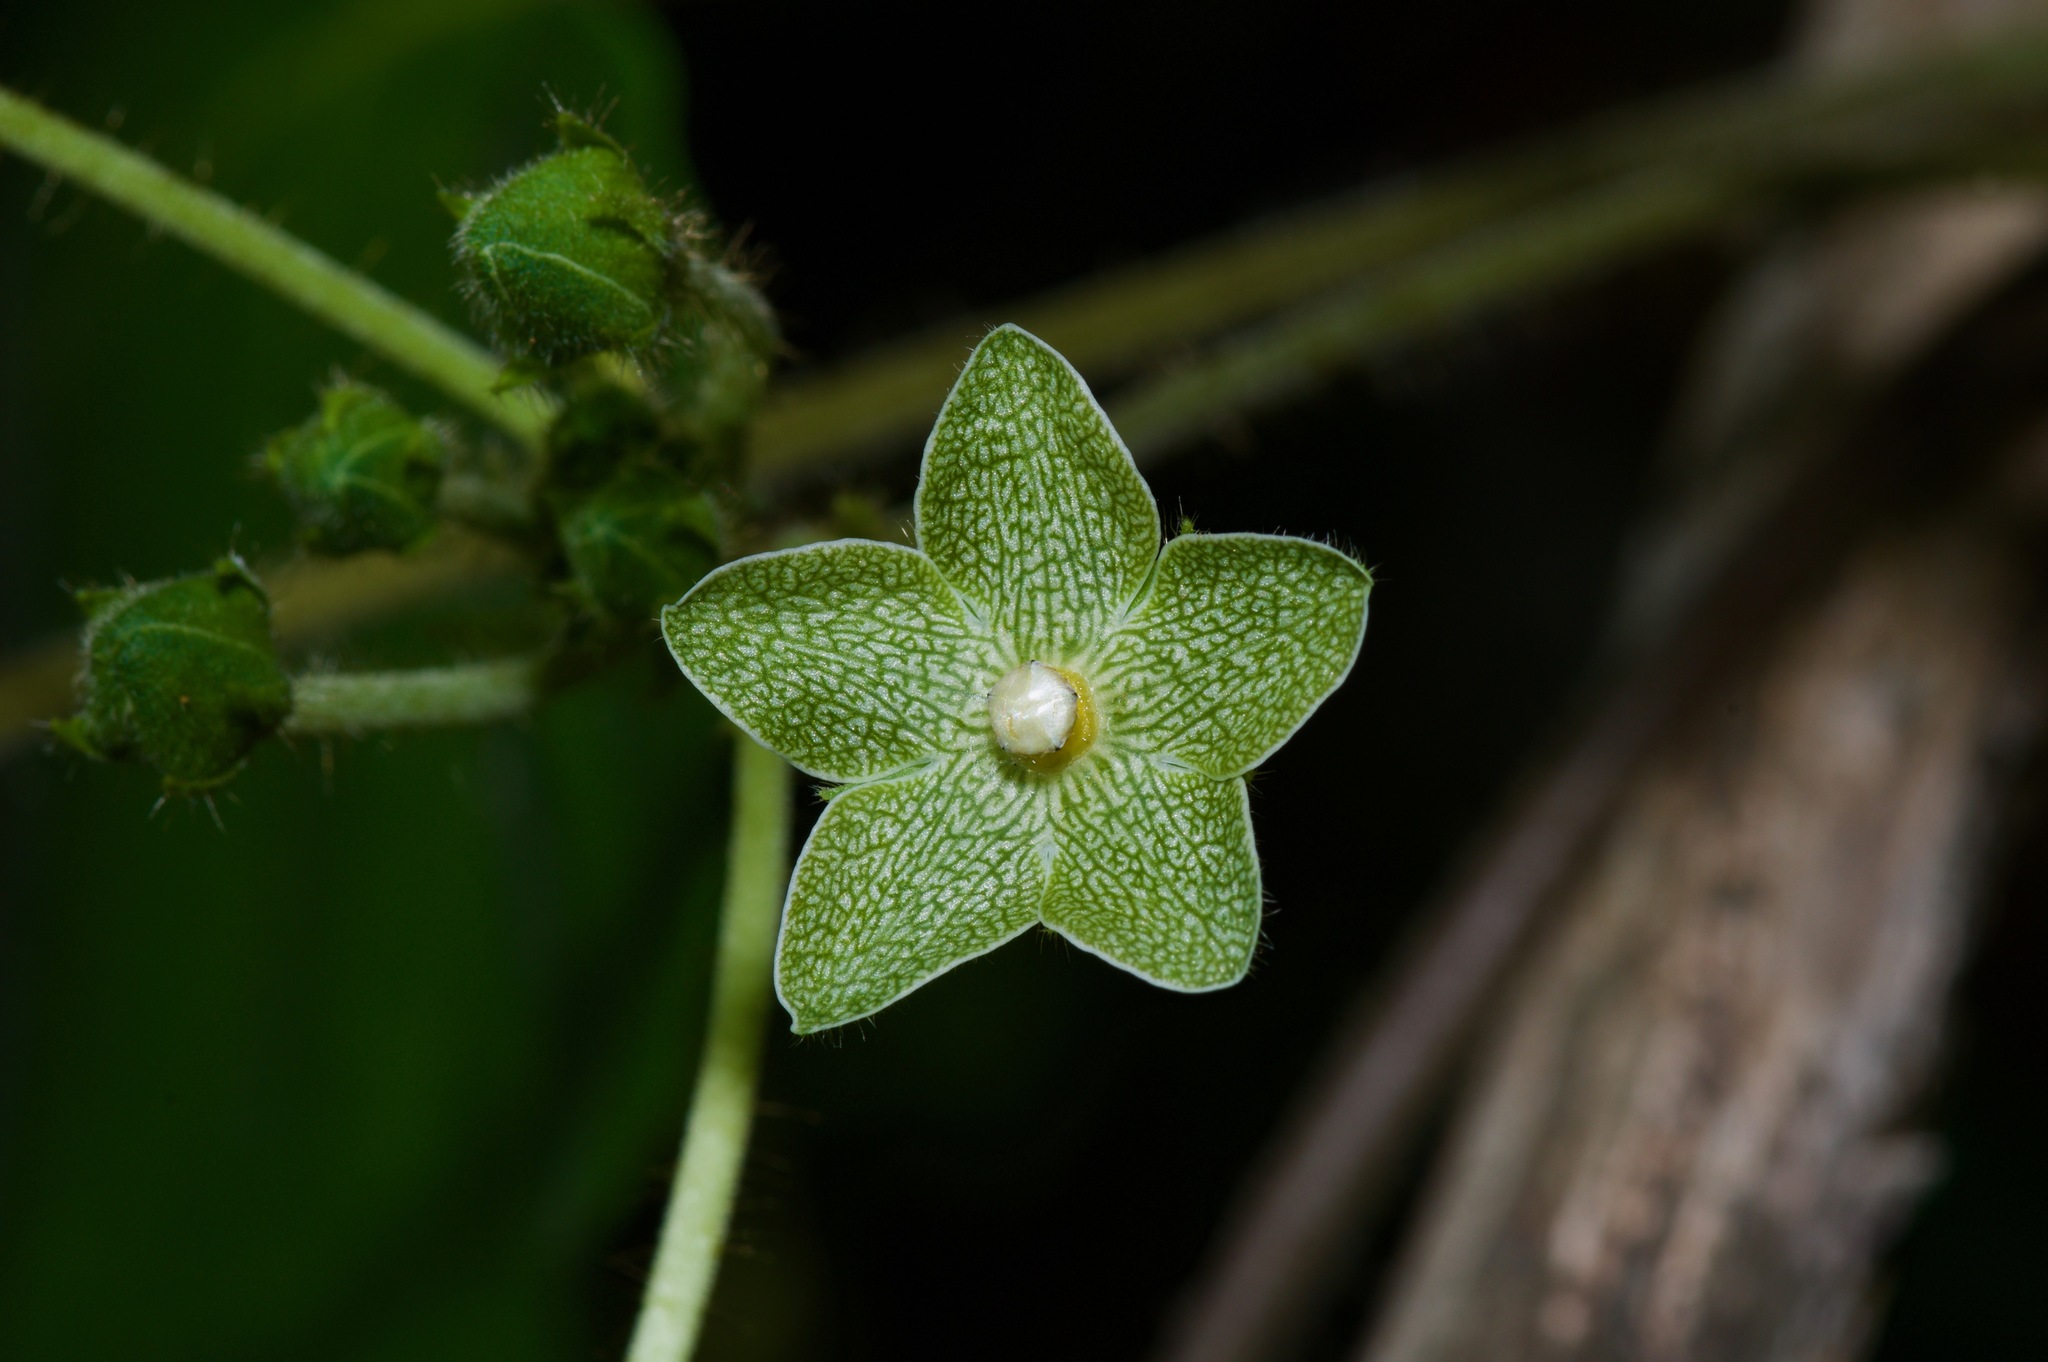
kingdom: Plantae
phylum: Tracheophyta
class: Magnoliopsida
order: Gentianales
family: Apocynaceae
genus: Dictyanthus
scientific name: Dictyanthus reticulatus
